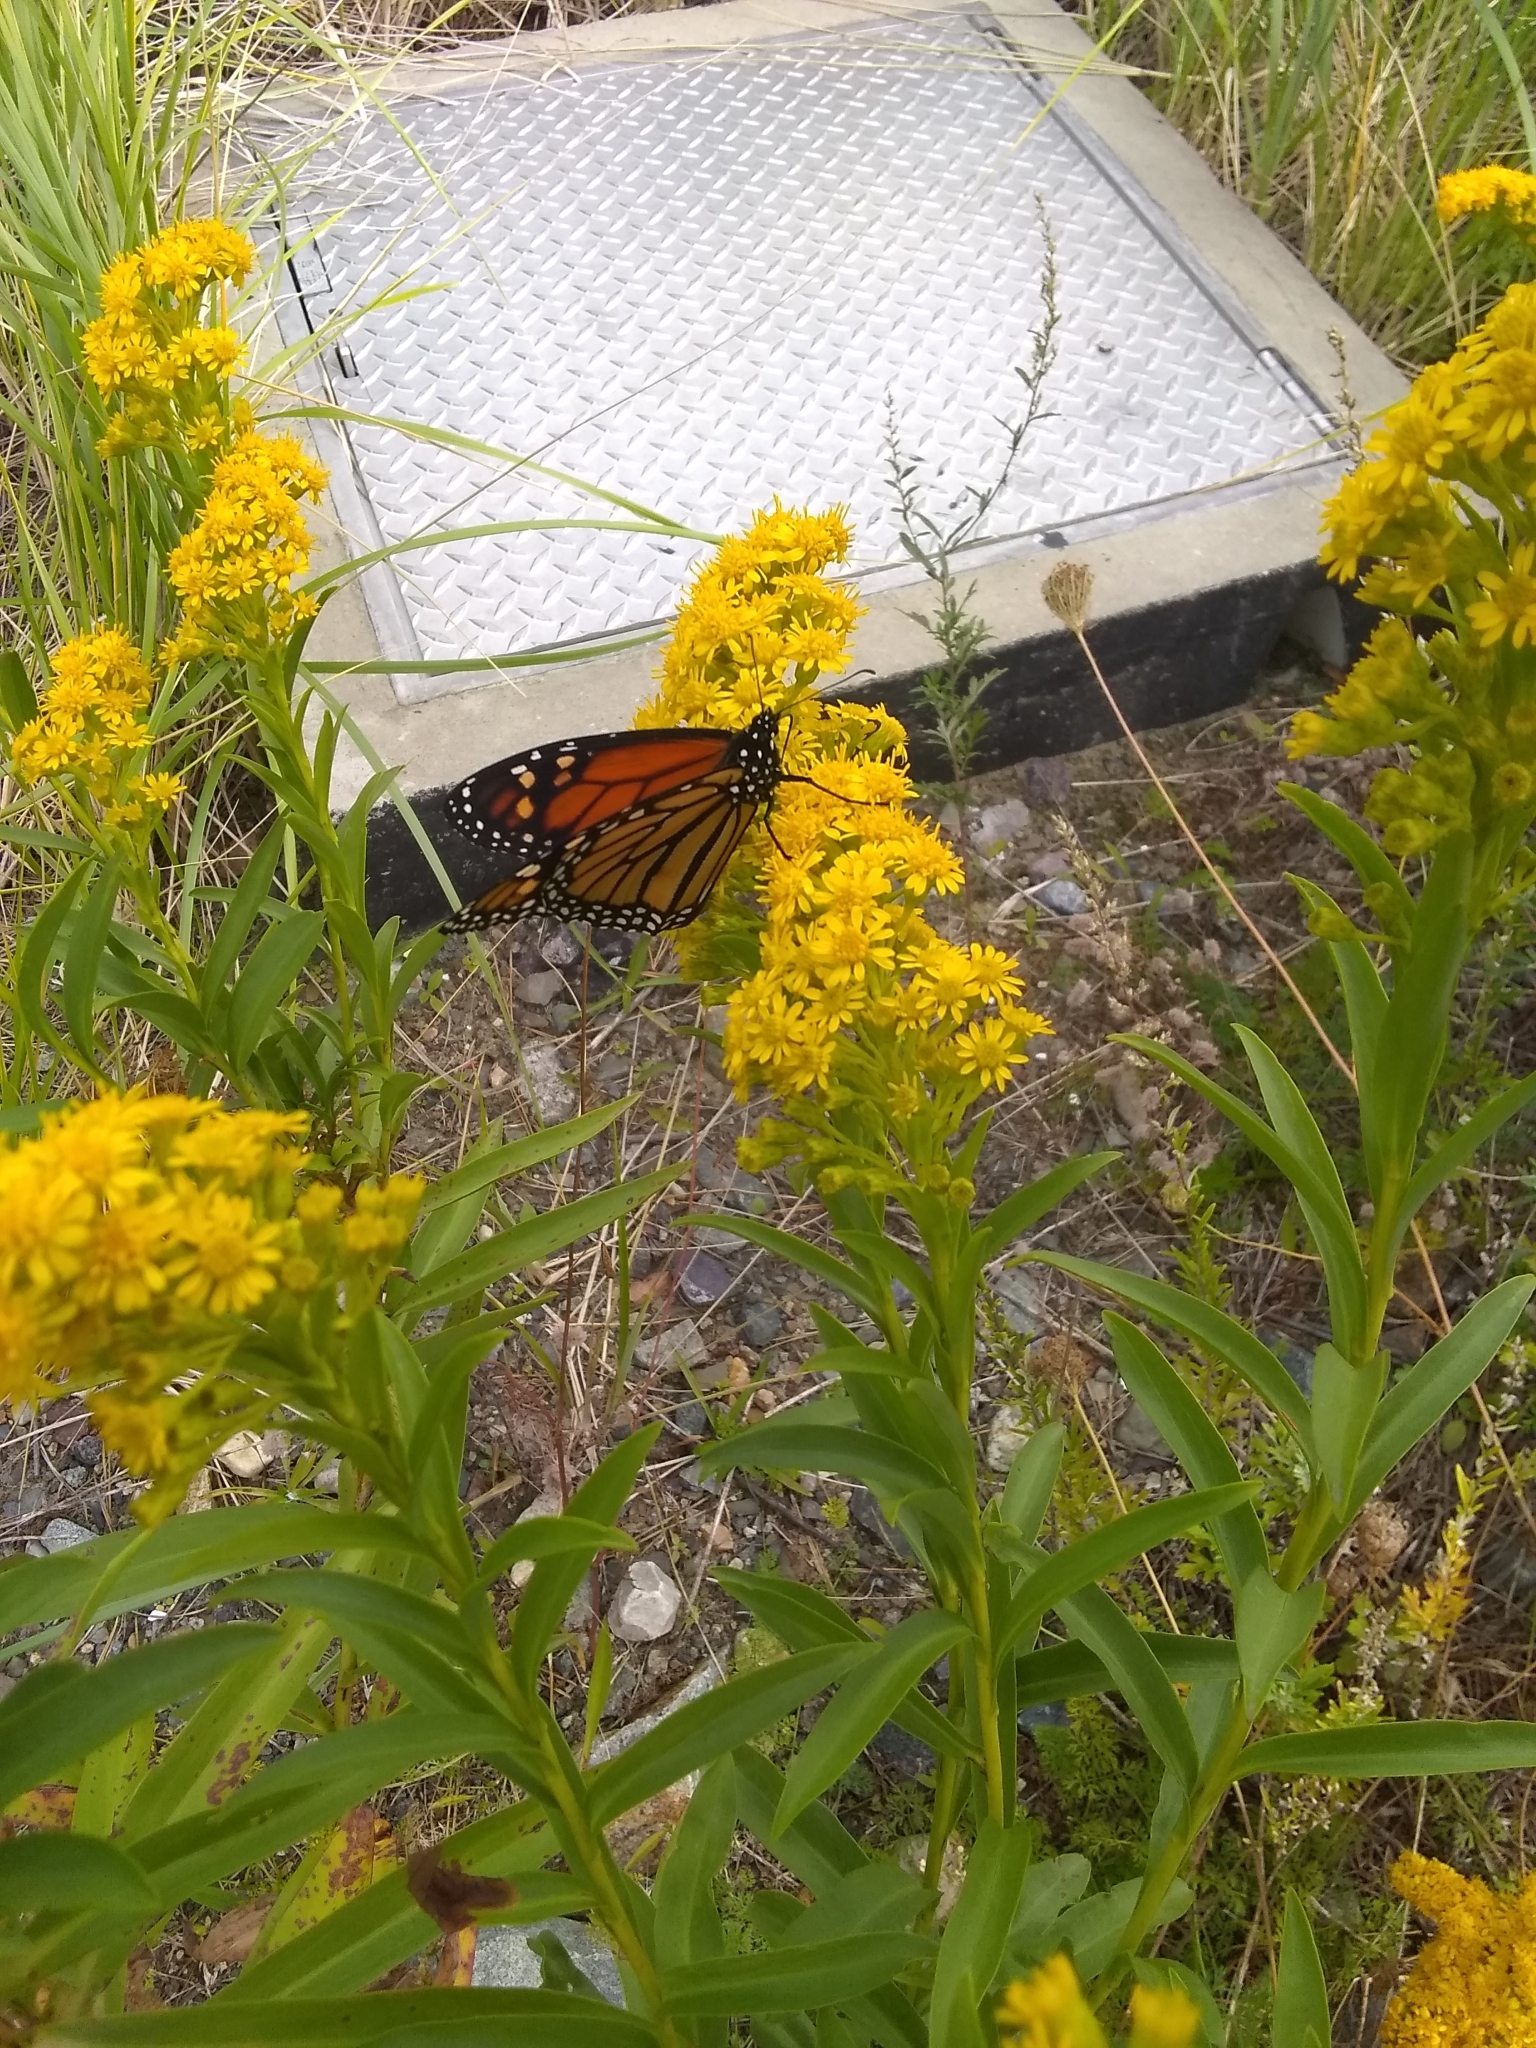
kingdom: Animalia
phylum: Arthropoda
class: Insecta
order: Lepidoptera
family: Nymphalidae
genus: Danaus
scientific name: Danaus plexippus
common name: Monarch
